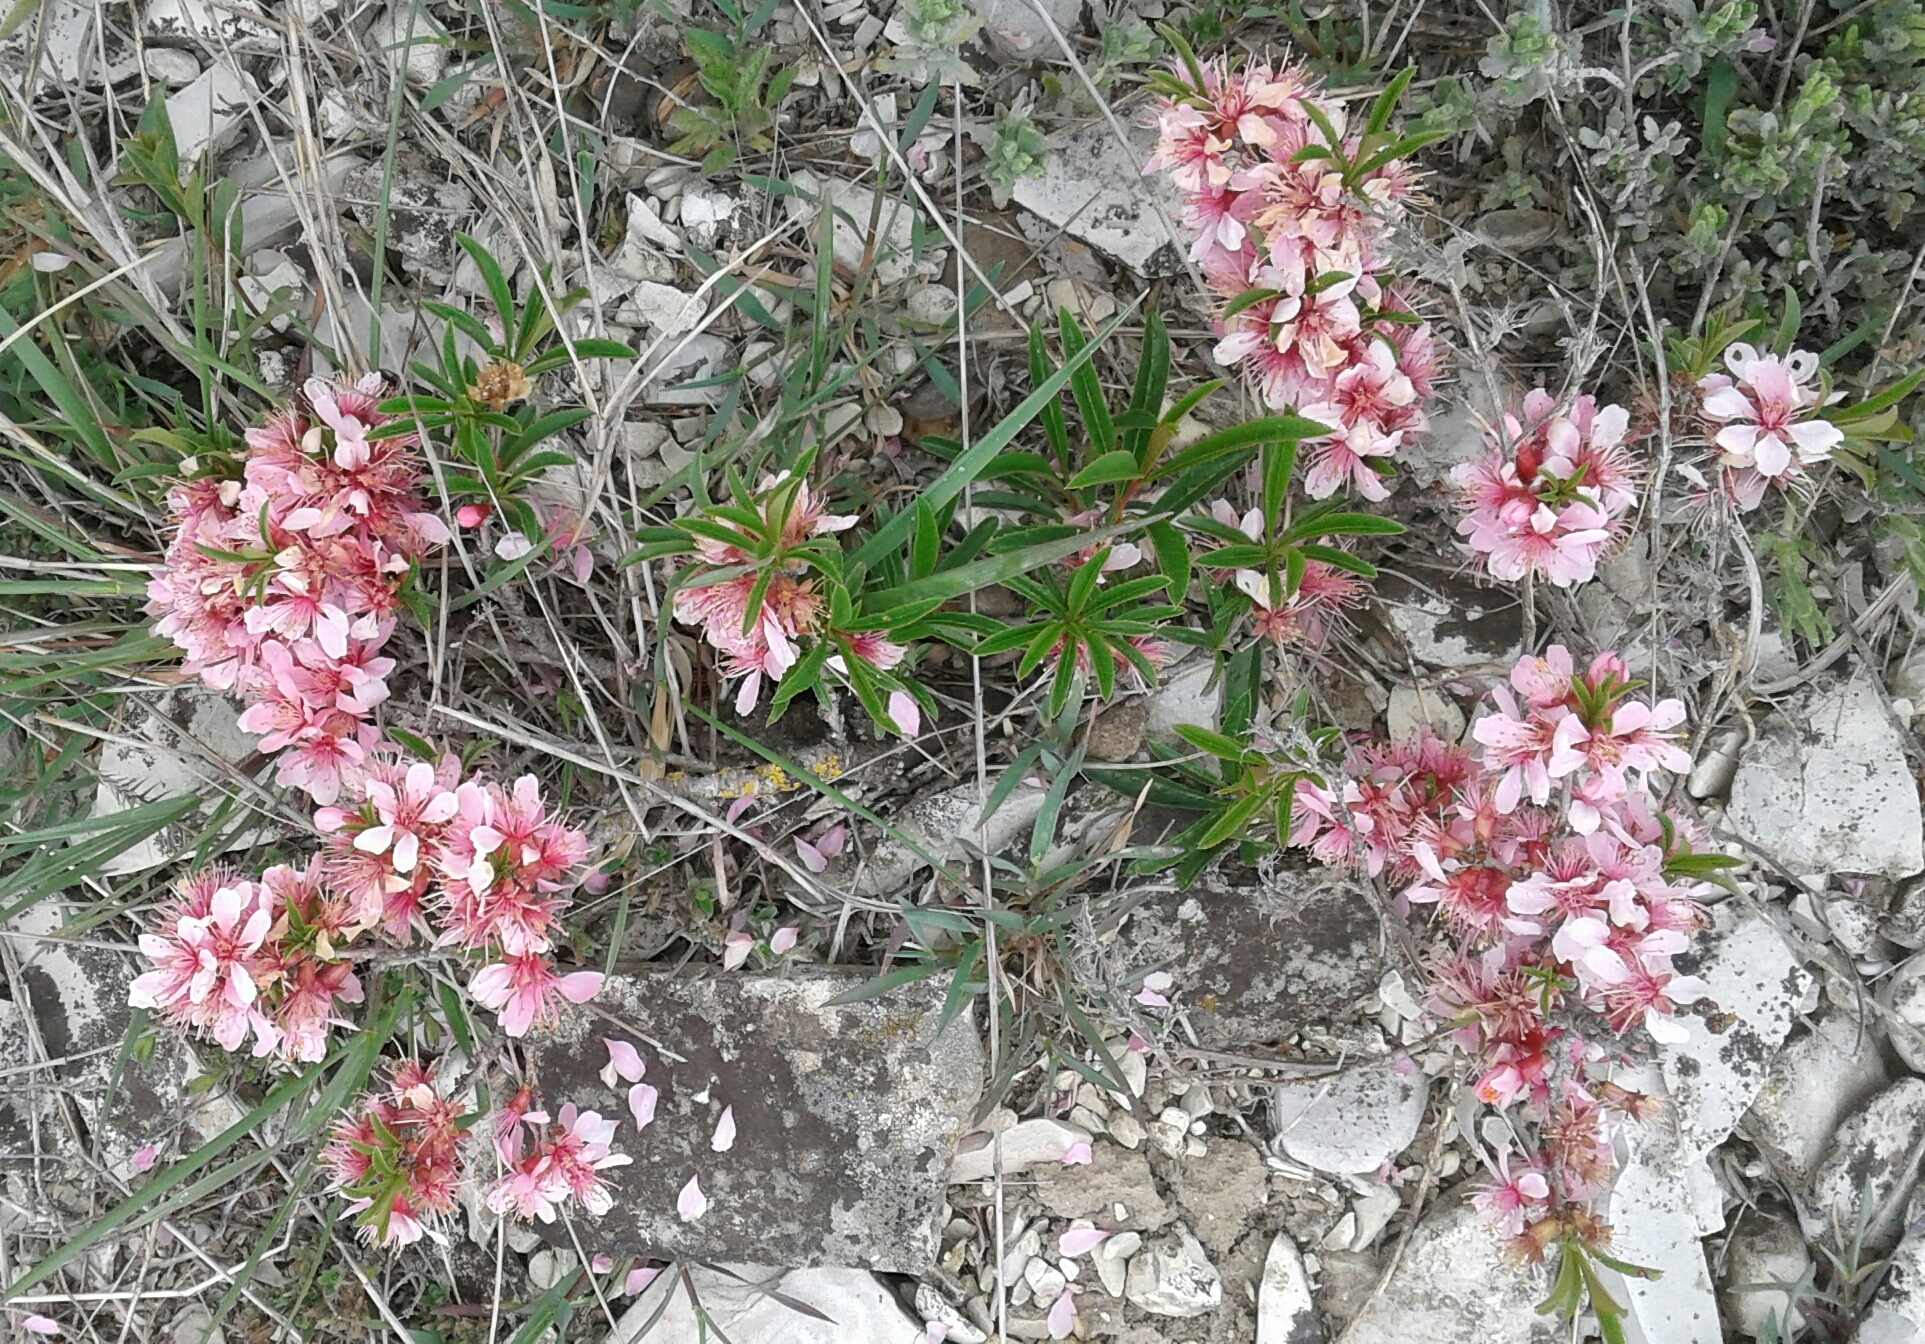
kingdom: Plantae
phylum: Tracheophyta
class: Magnoliopsida
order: Rosales
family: Rosaceae
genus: Prunus
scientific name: Prunus tenella
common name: Dwarf russian almond
